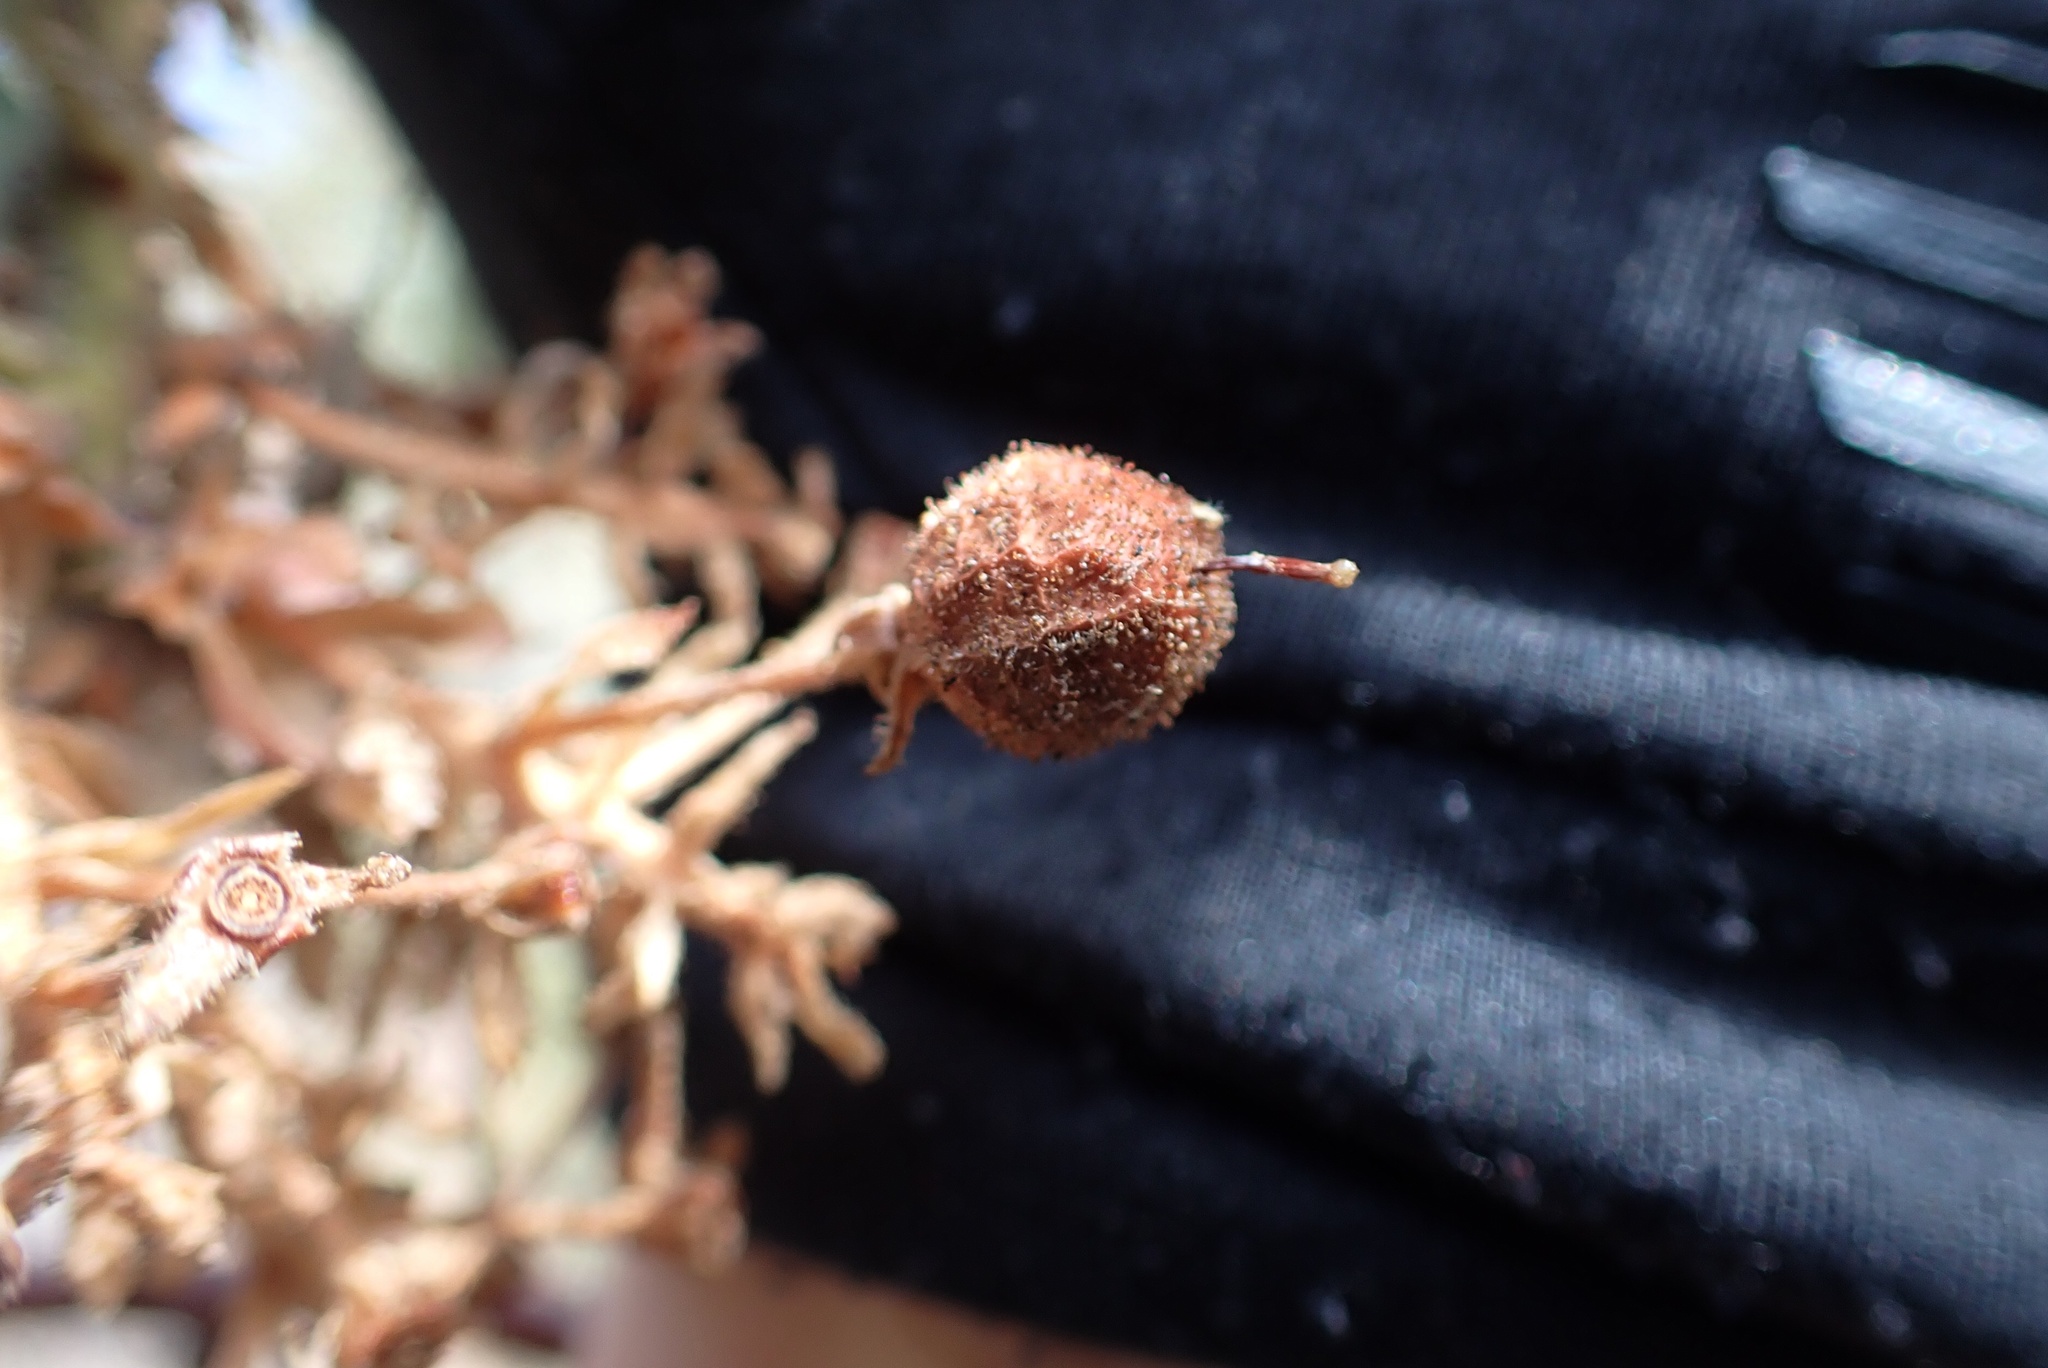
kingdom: Plantae
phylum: Tracheophyta
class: Magnoliopsida
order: Ericales
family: Ericaceae
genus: Arctostaphylos
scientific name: Arctostaphylos pringlei
